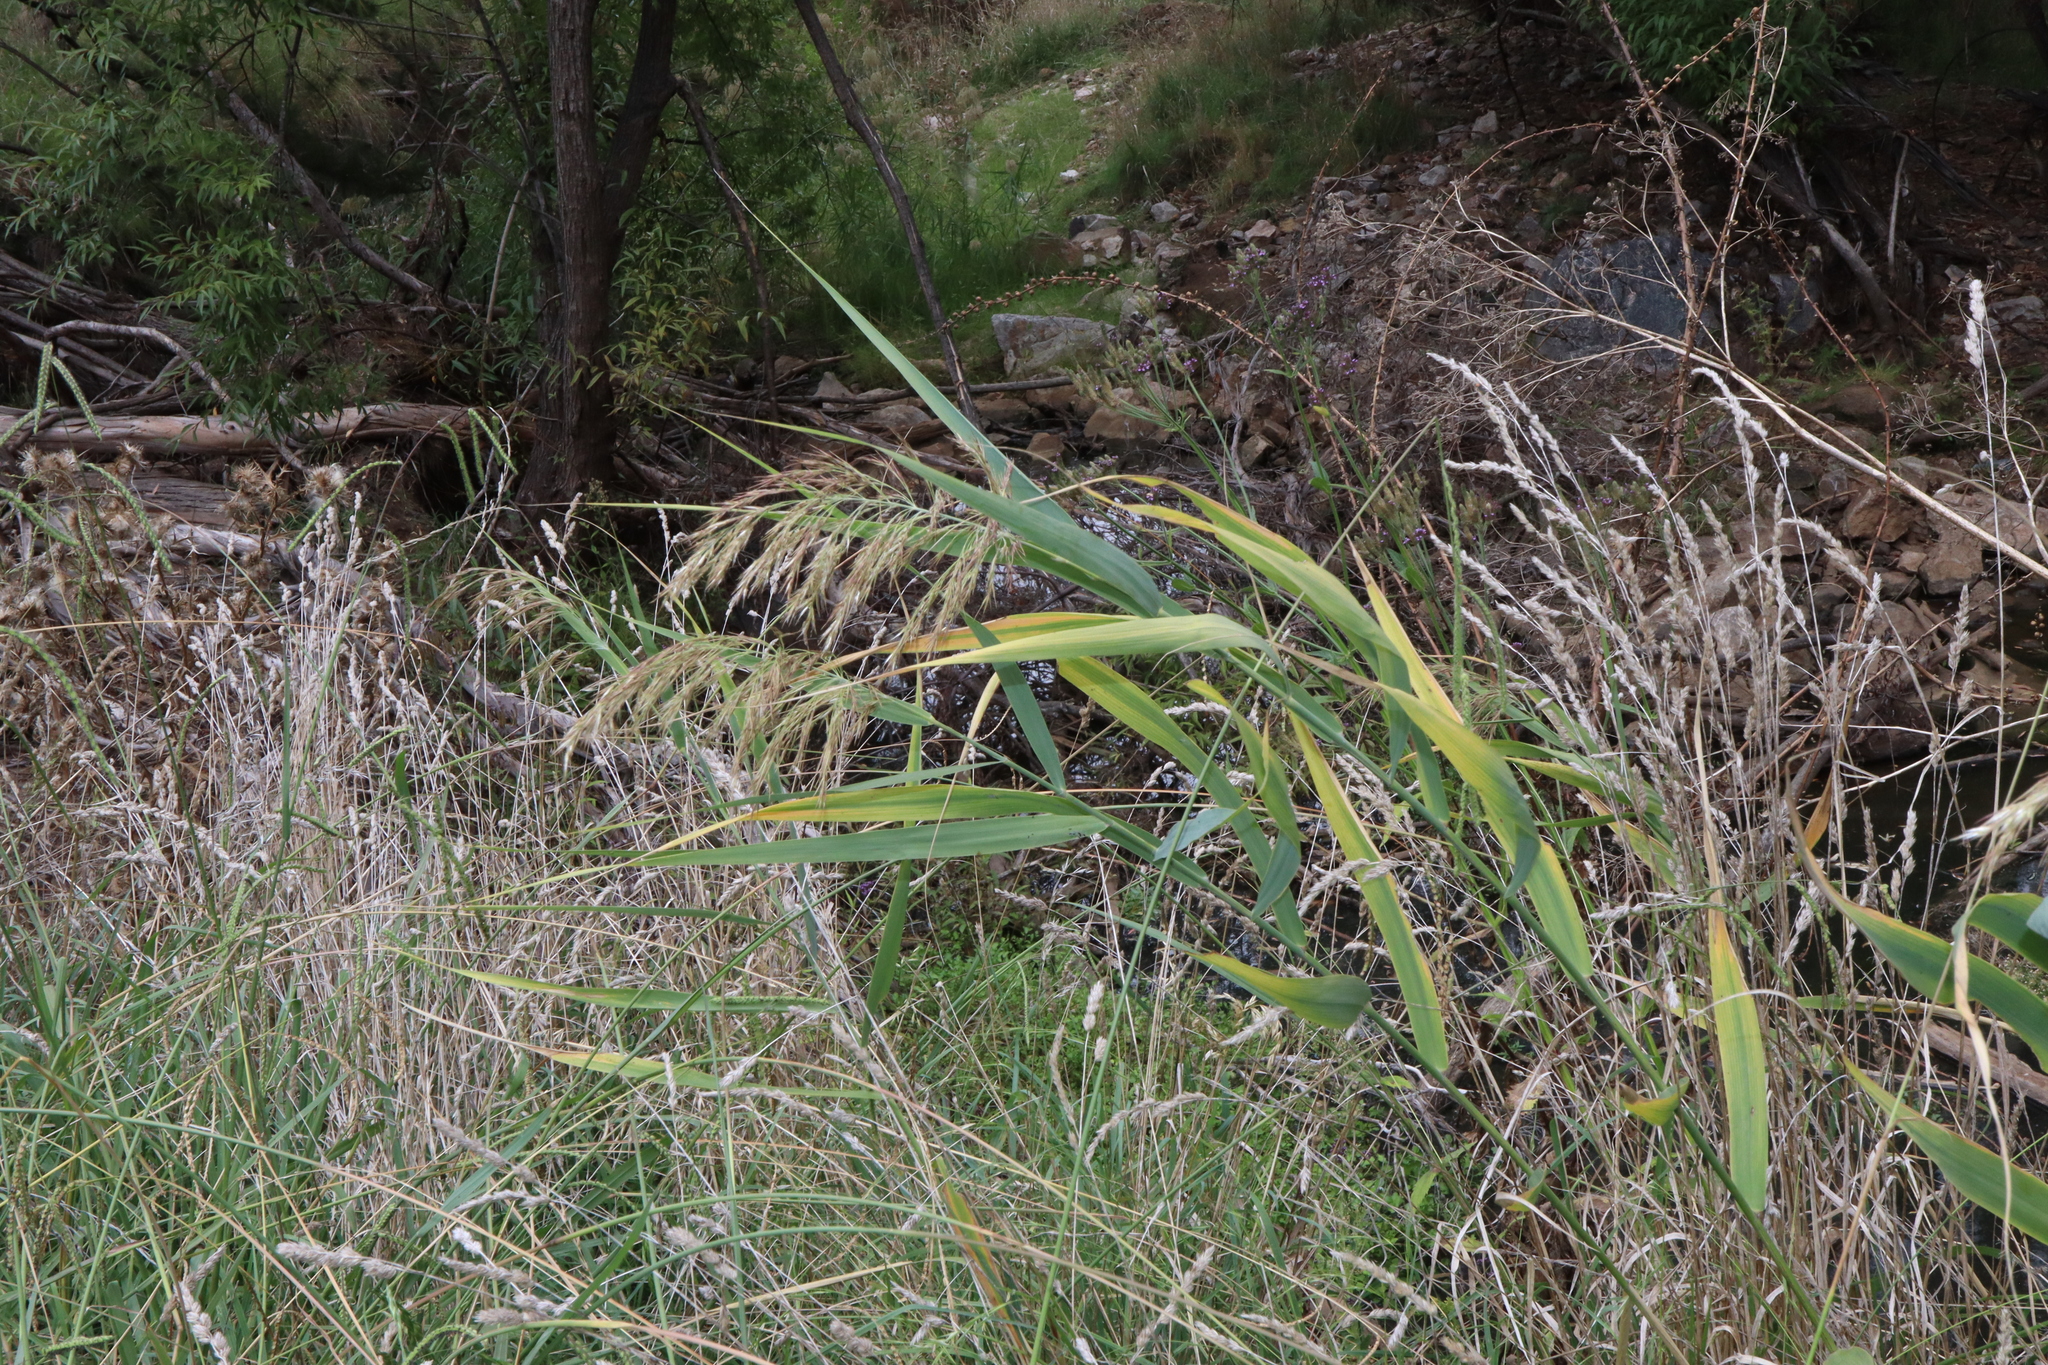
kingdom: Plantae
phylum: Tracheophyta
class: Liliopsida
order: Poales
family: Poaceae
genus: Phragmites
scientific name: Phragmites australis
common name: Common reed
